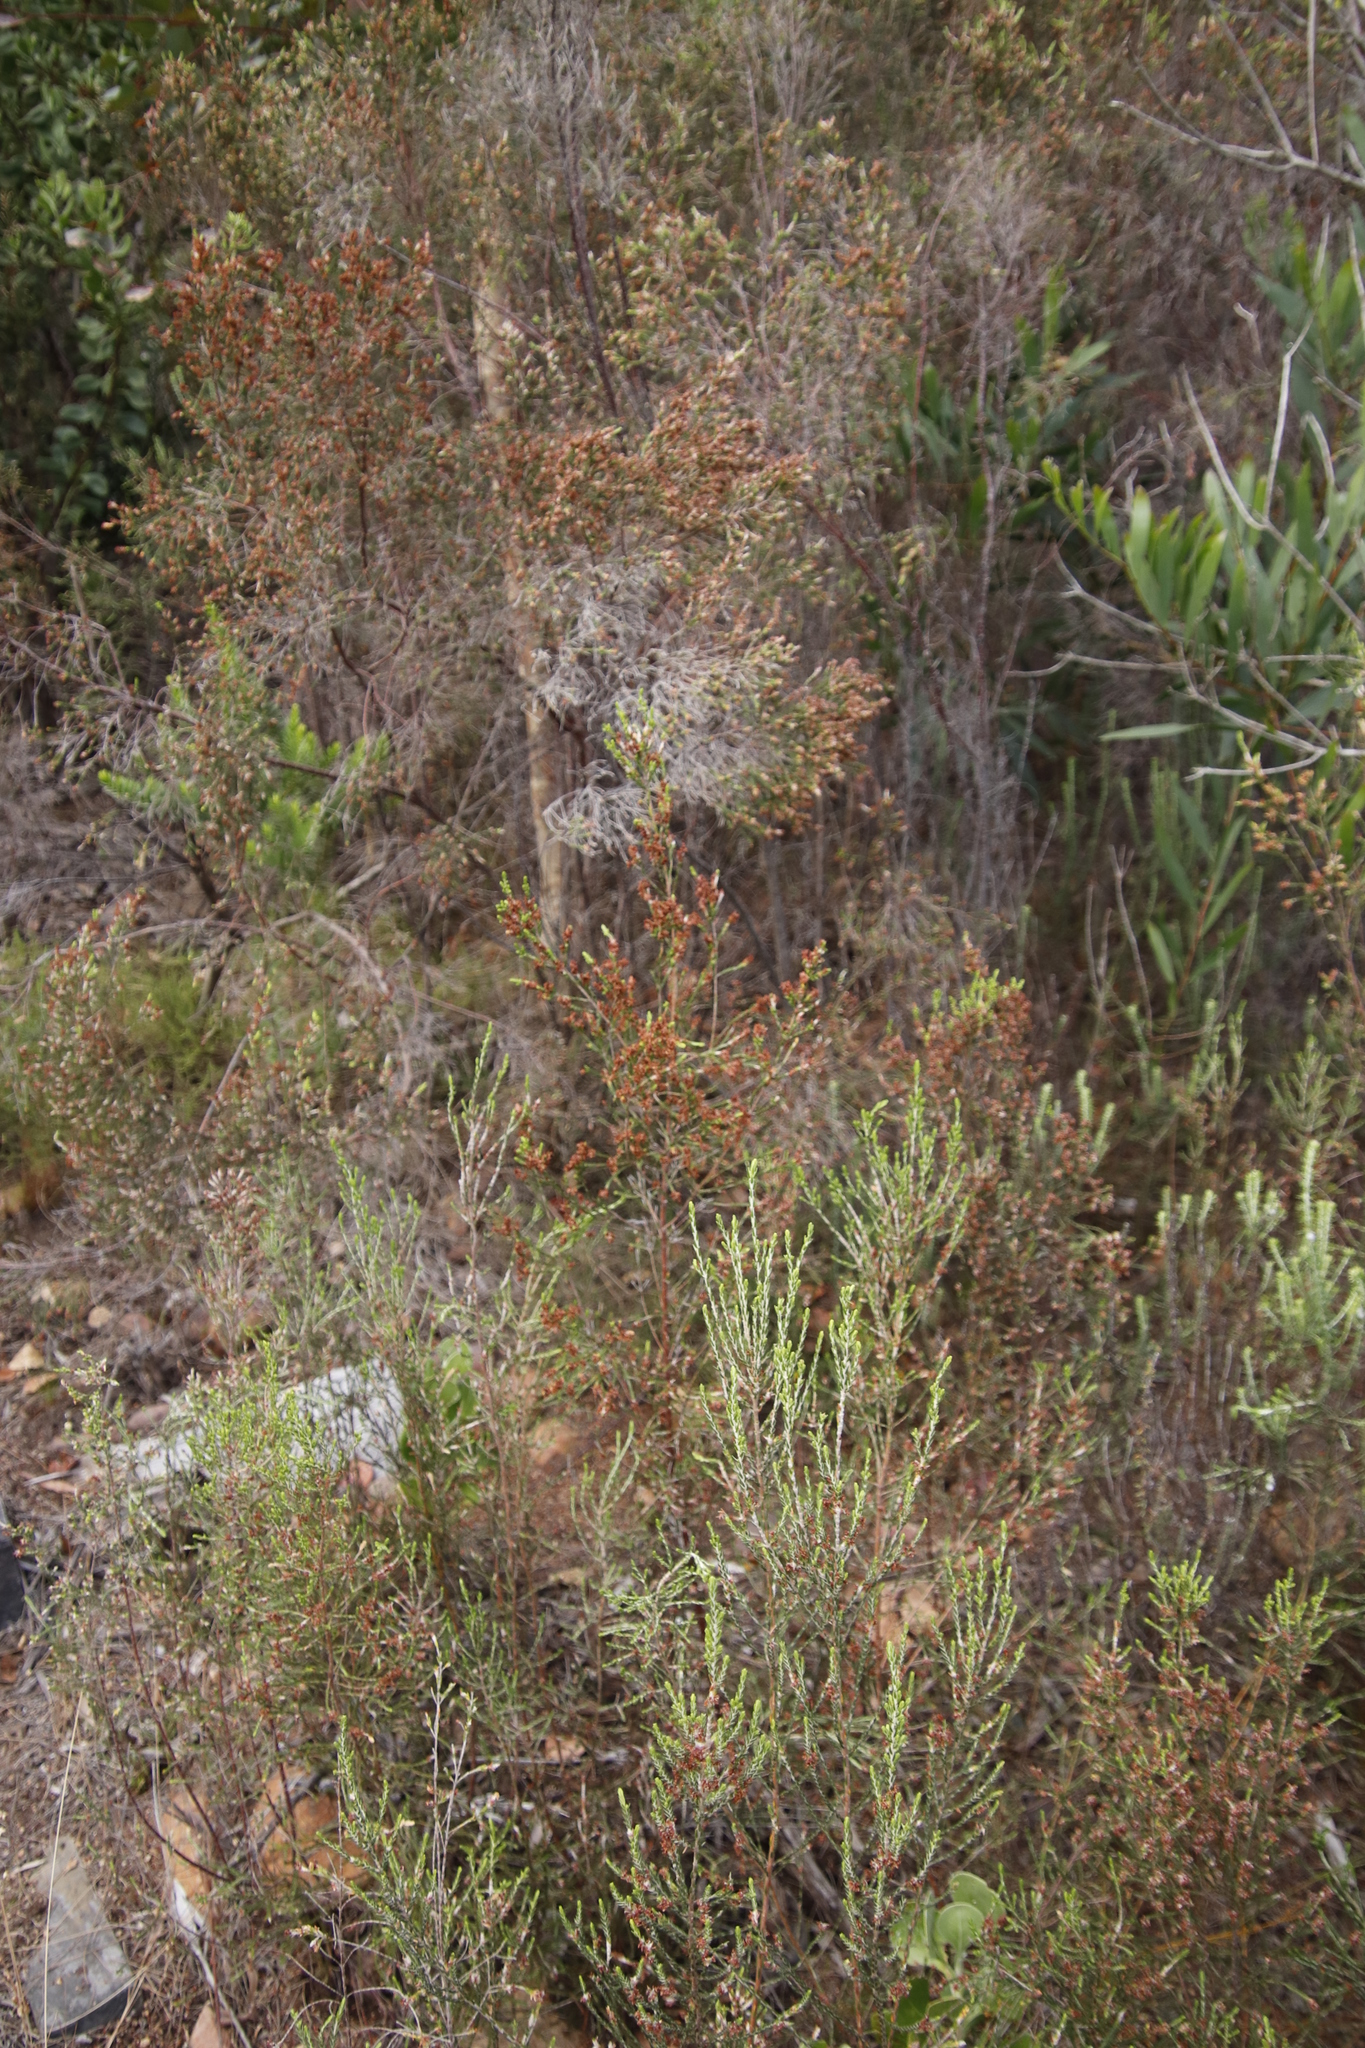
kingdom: Plantae
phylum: Tracheophyta
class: Magnoliopsida
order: Malvales
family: Thymelaeaceae
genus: Passerina
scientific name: Passerina corymbosa
